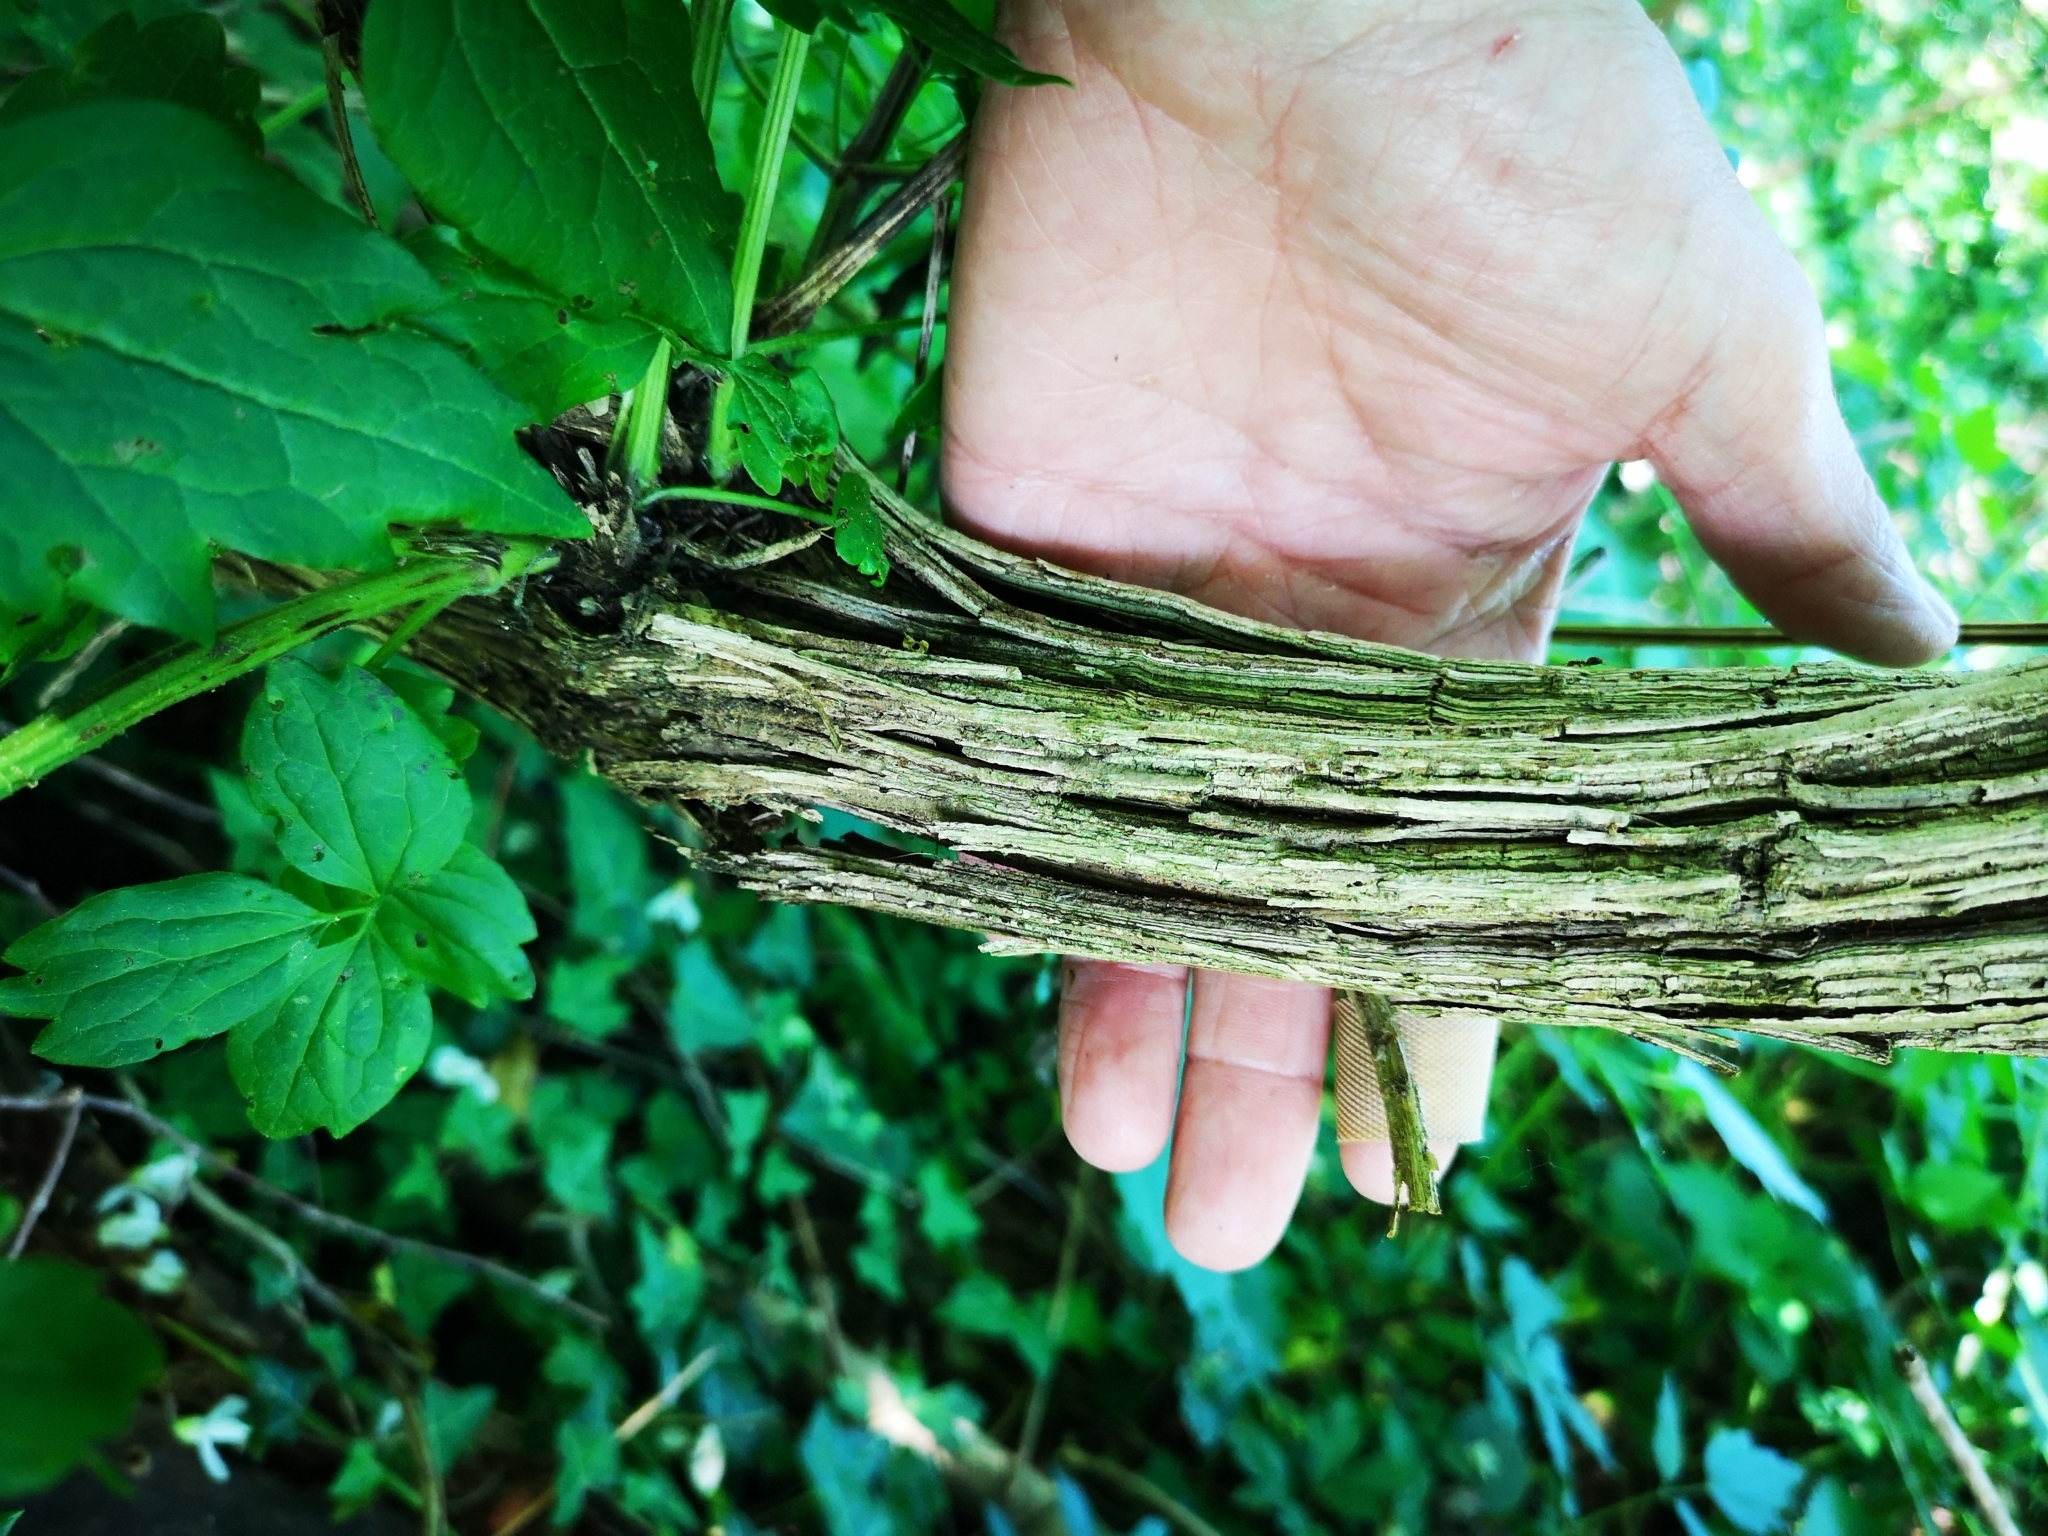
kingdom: Plantae
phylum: Tracheophyta
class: Magnoliopsida
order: Ranunculales
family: Ranunculaceae
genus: Clematis
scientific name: Clematis vitalba
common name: Evergreen clematis
